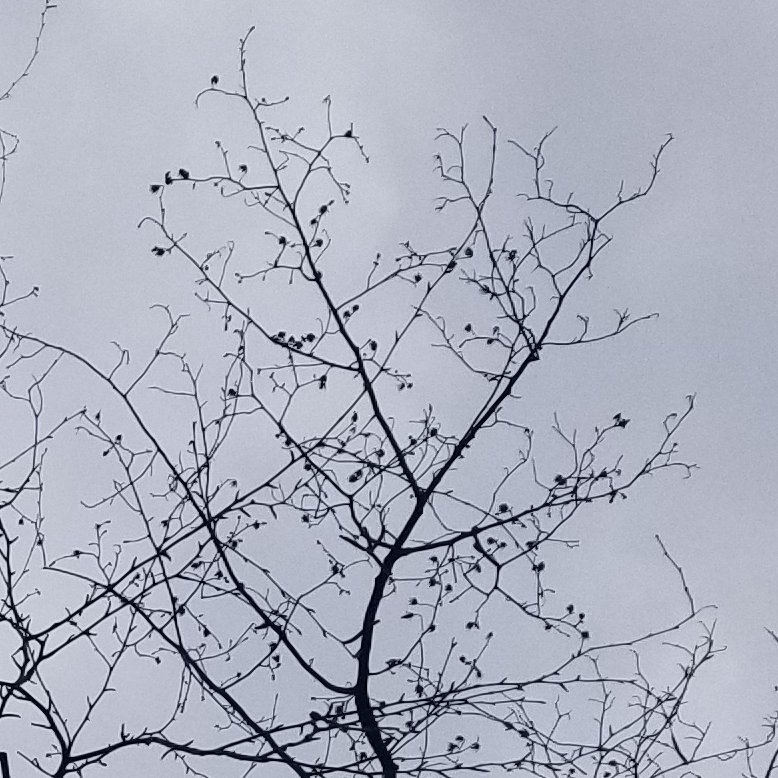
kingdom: Plantae
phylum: Tracheophyta
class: Magnoliopsida
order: Magnoliales
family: Magnoliaceae
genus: Liriodendron
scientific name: Liriodendron tulipifera
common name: Tulip tree
